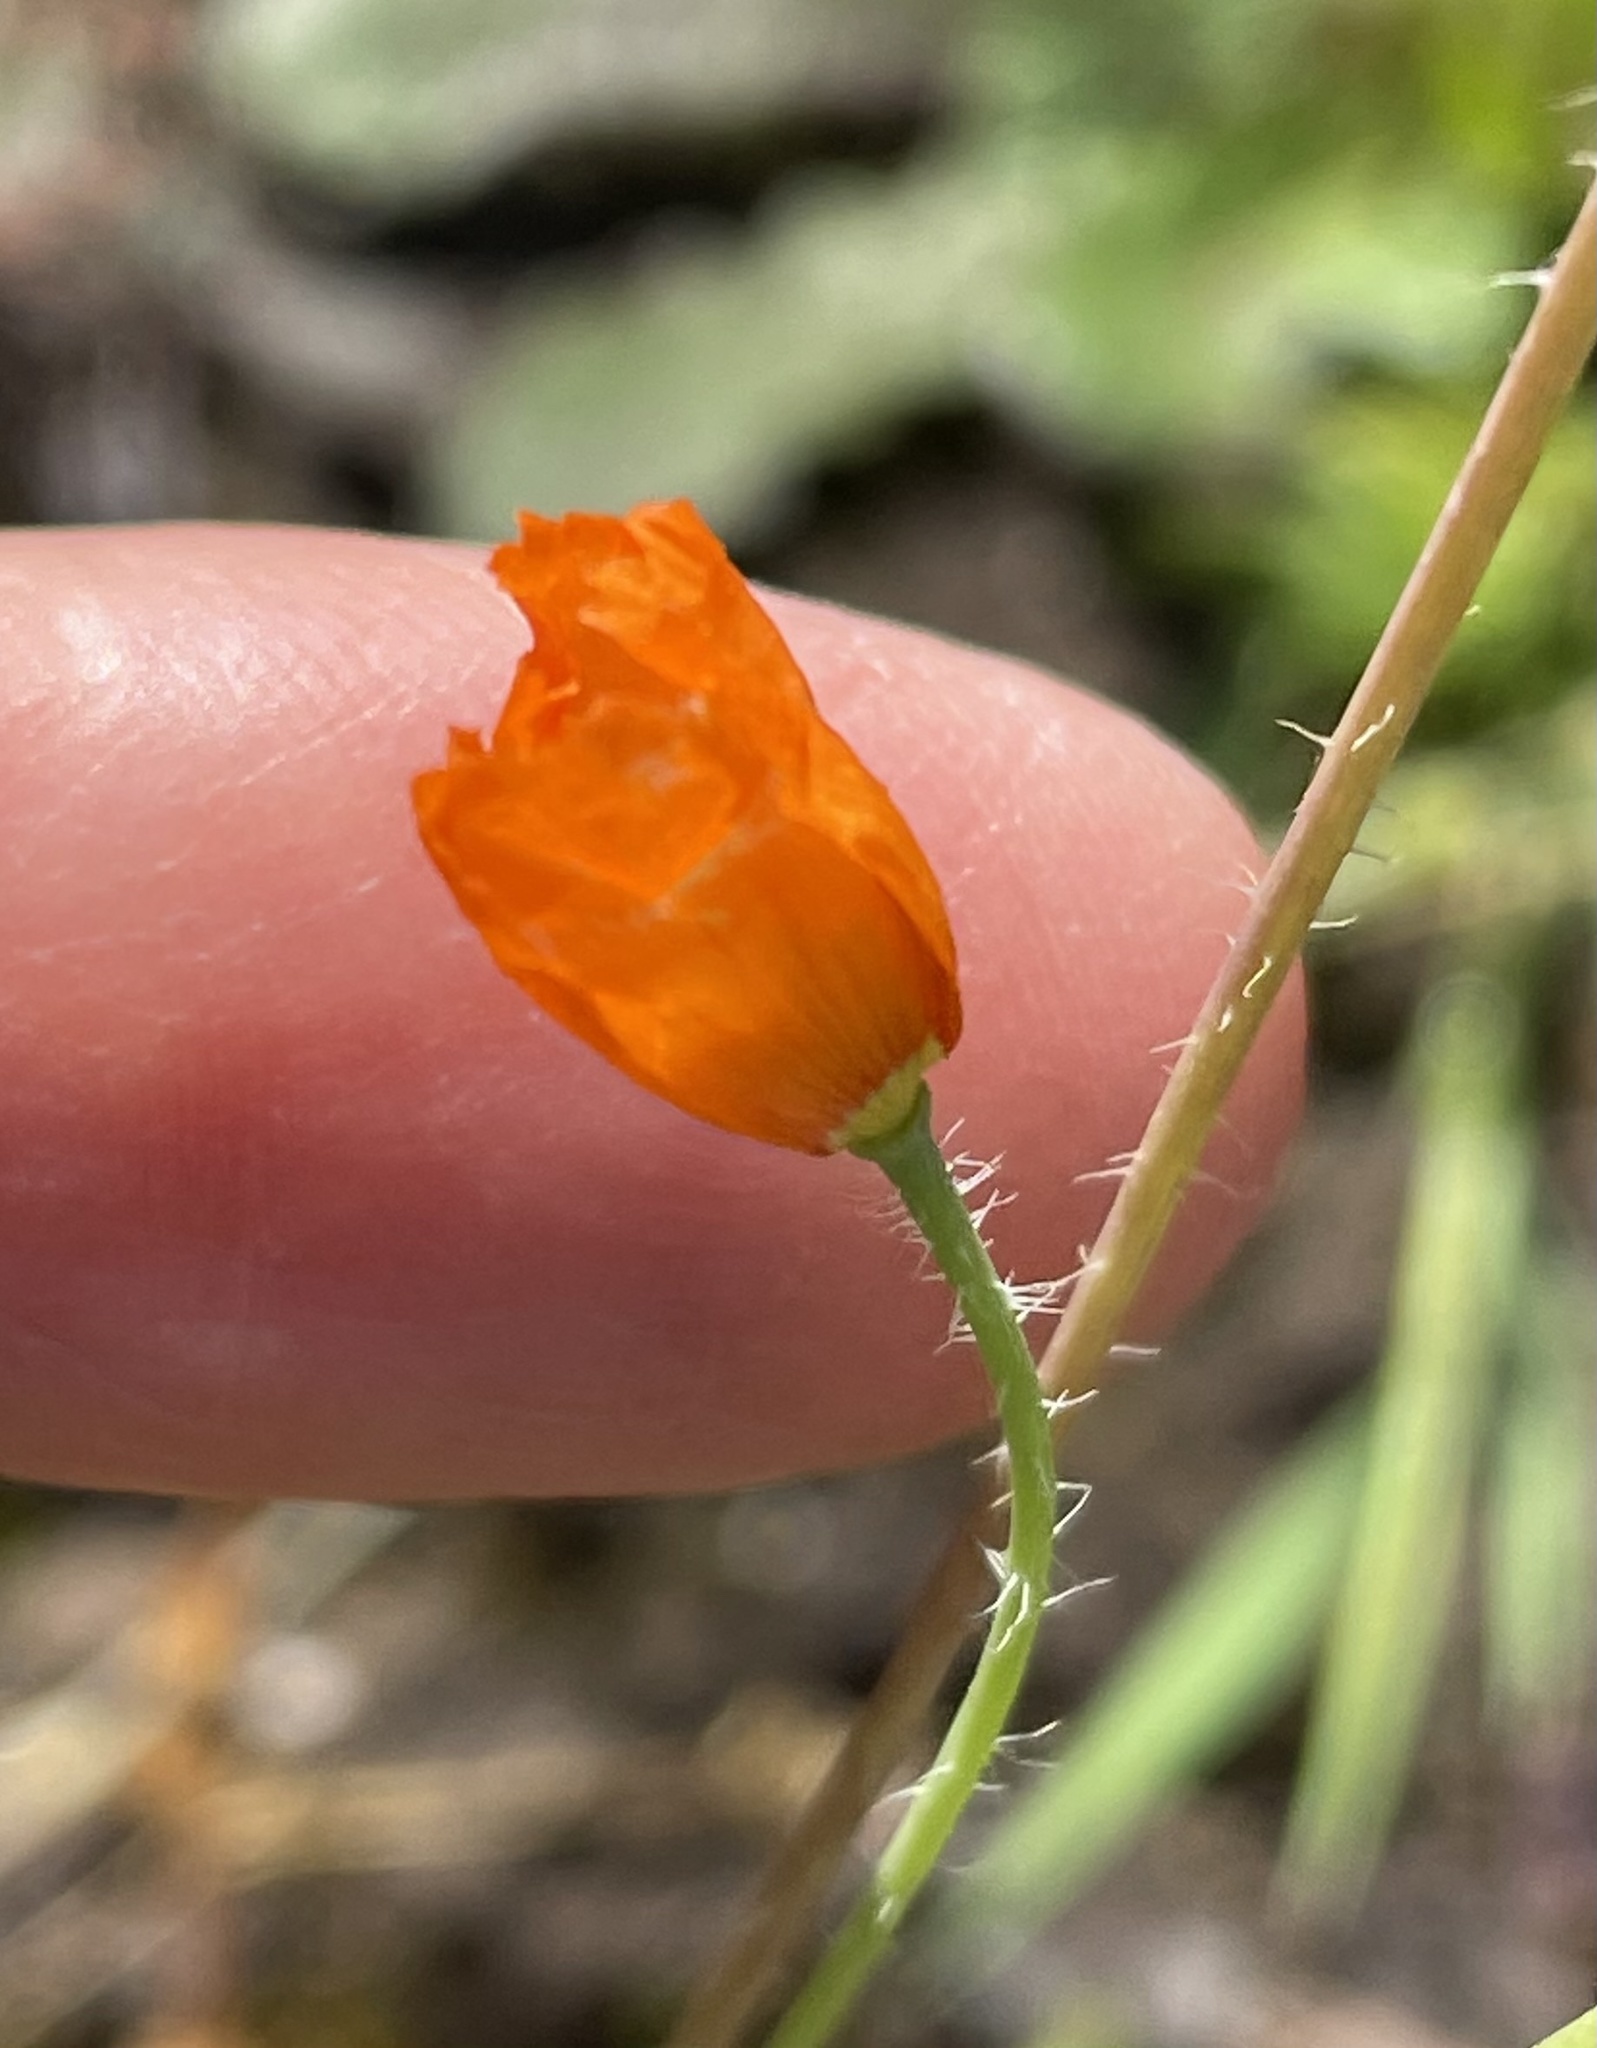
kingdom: Plantae
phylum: Tracheophyta
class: Magnoliopsida
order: Ranunculales
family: Papaveraceae
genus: Papaver
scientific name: Papaver californicum
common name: Fire poppy
